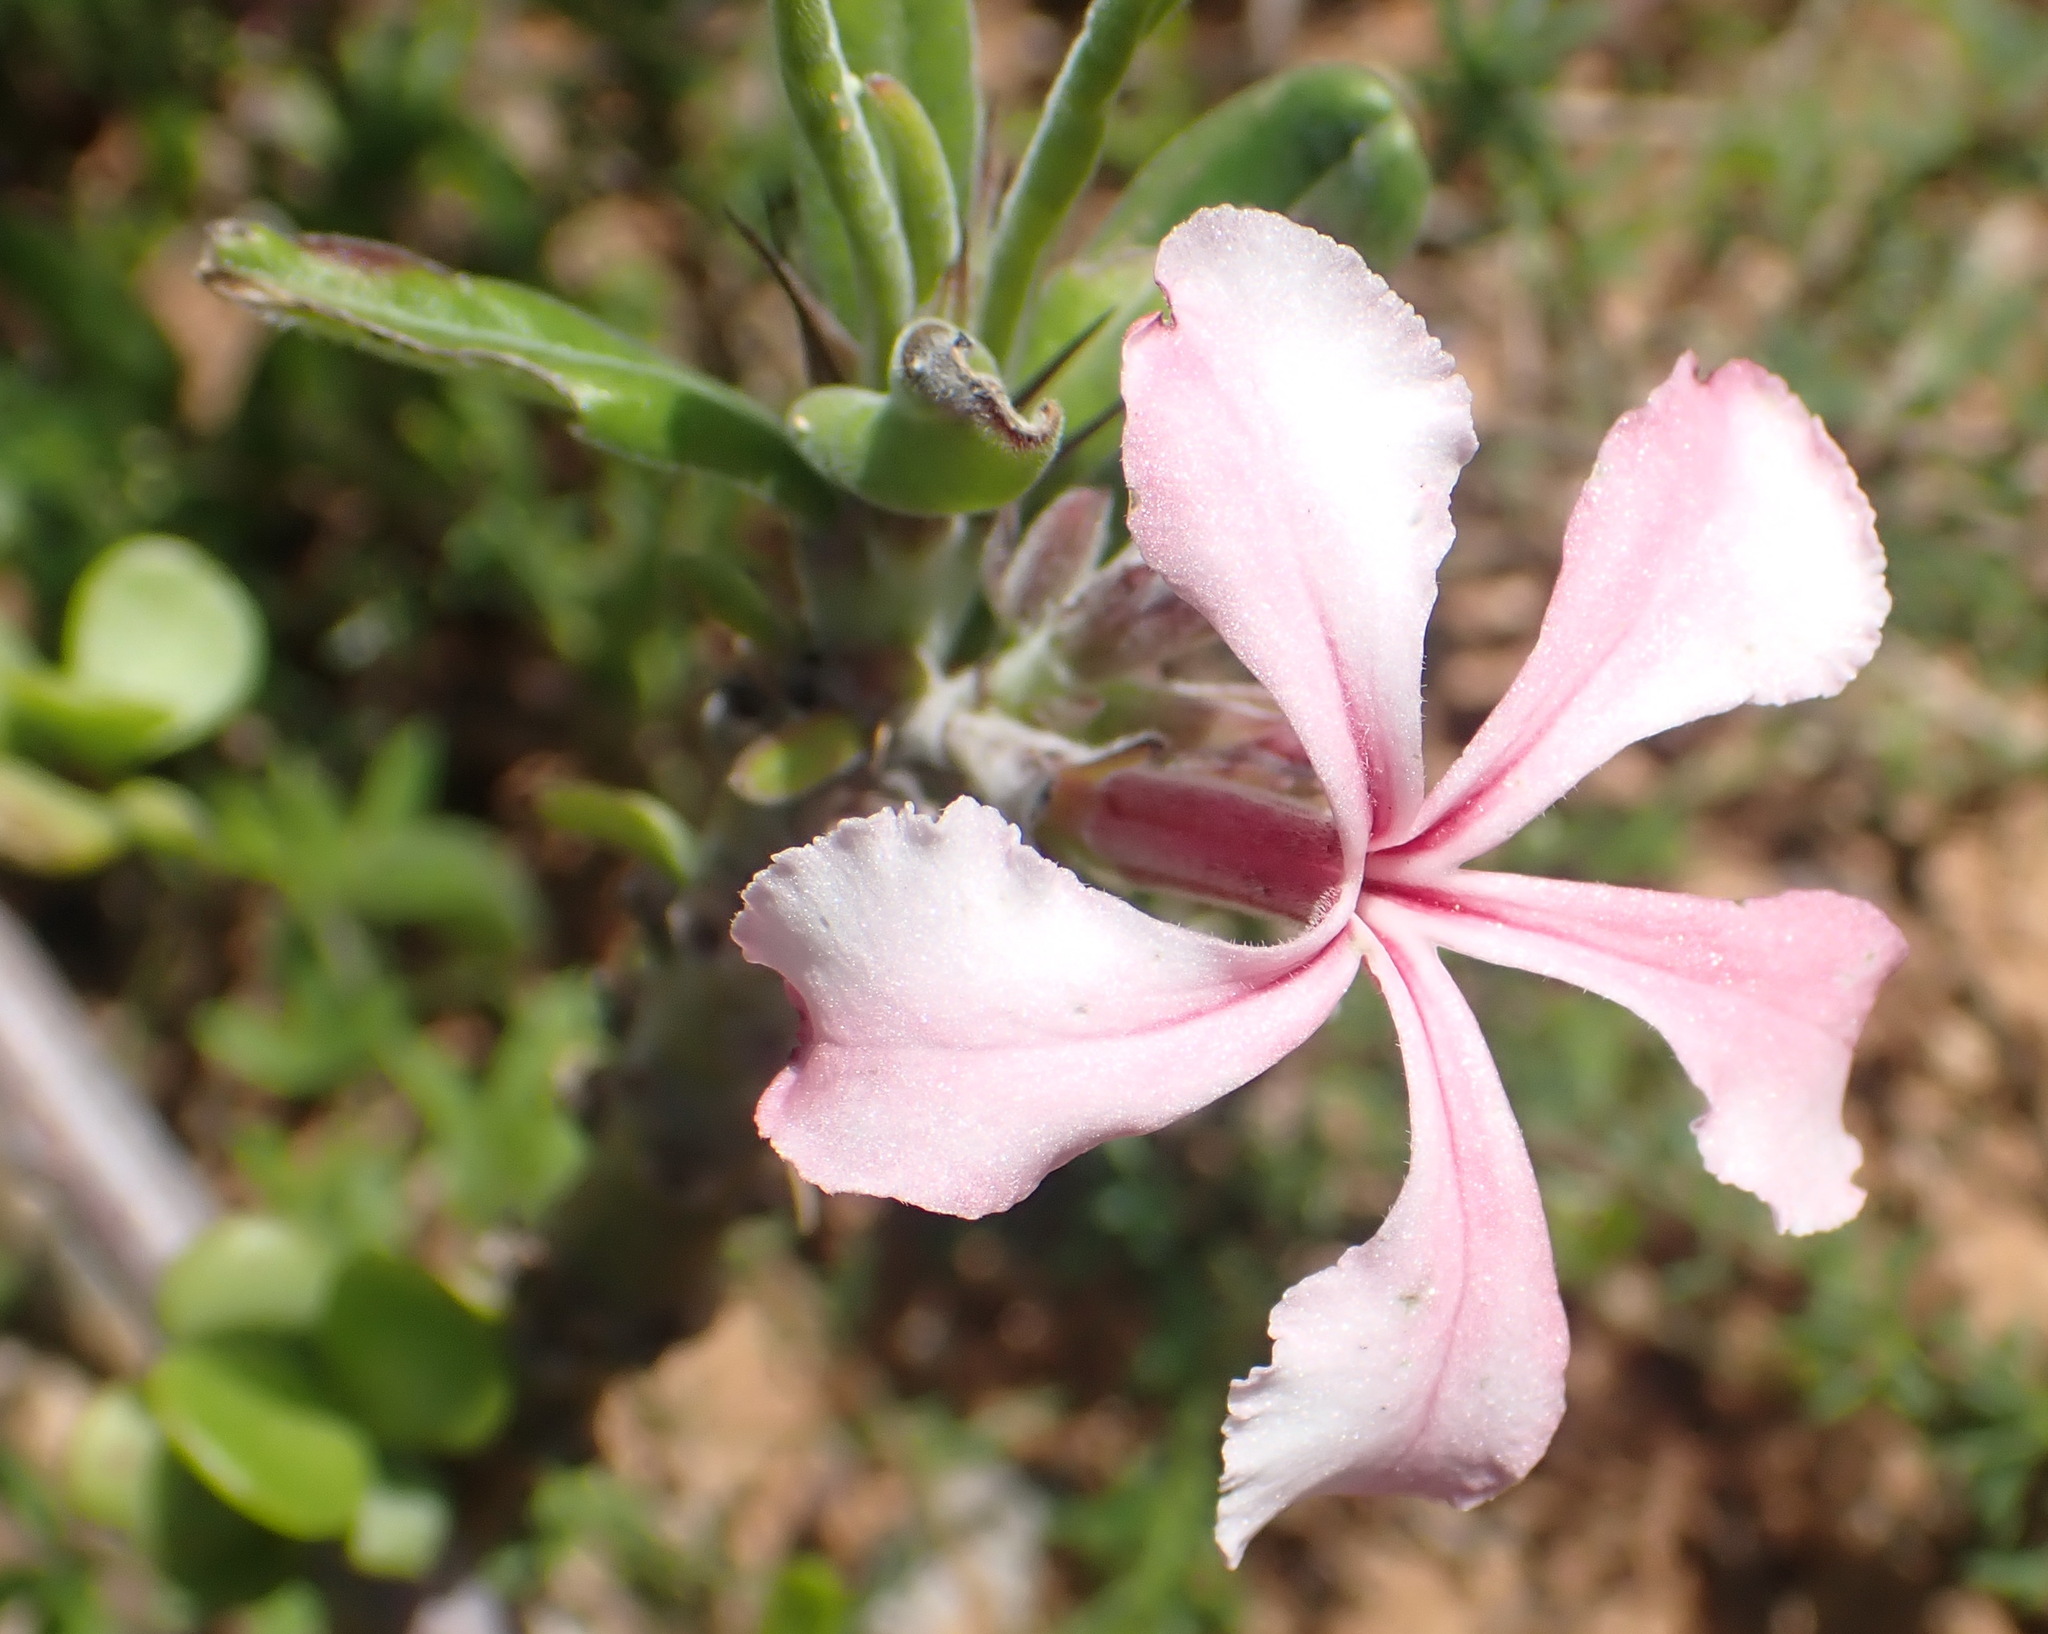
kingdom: Plantae
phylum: Tracheophyta
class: Magnoliopsida
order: Gentianales
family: Apocynaceae
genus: Pachypodium
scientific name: Pachypodium succulentum
